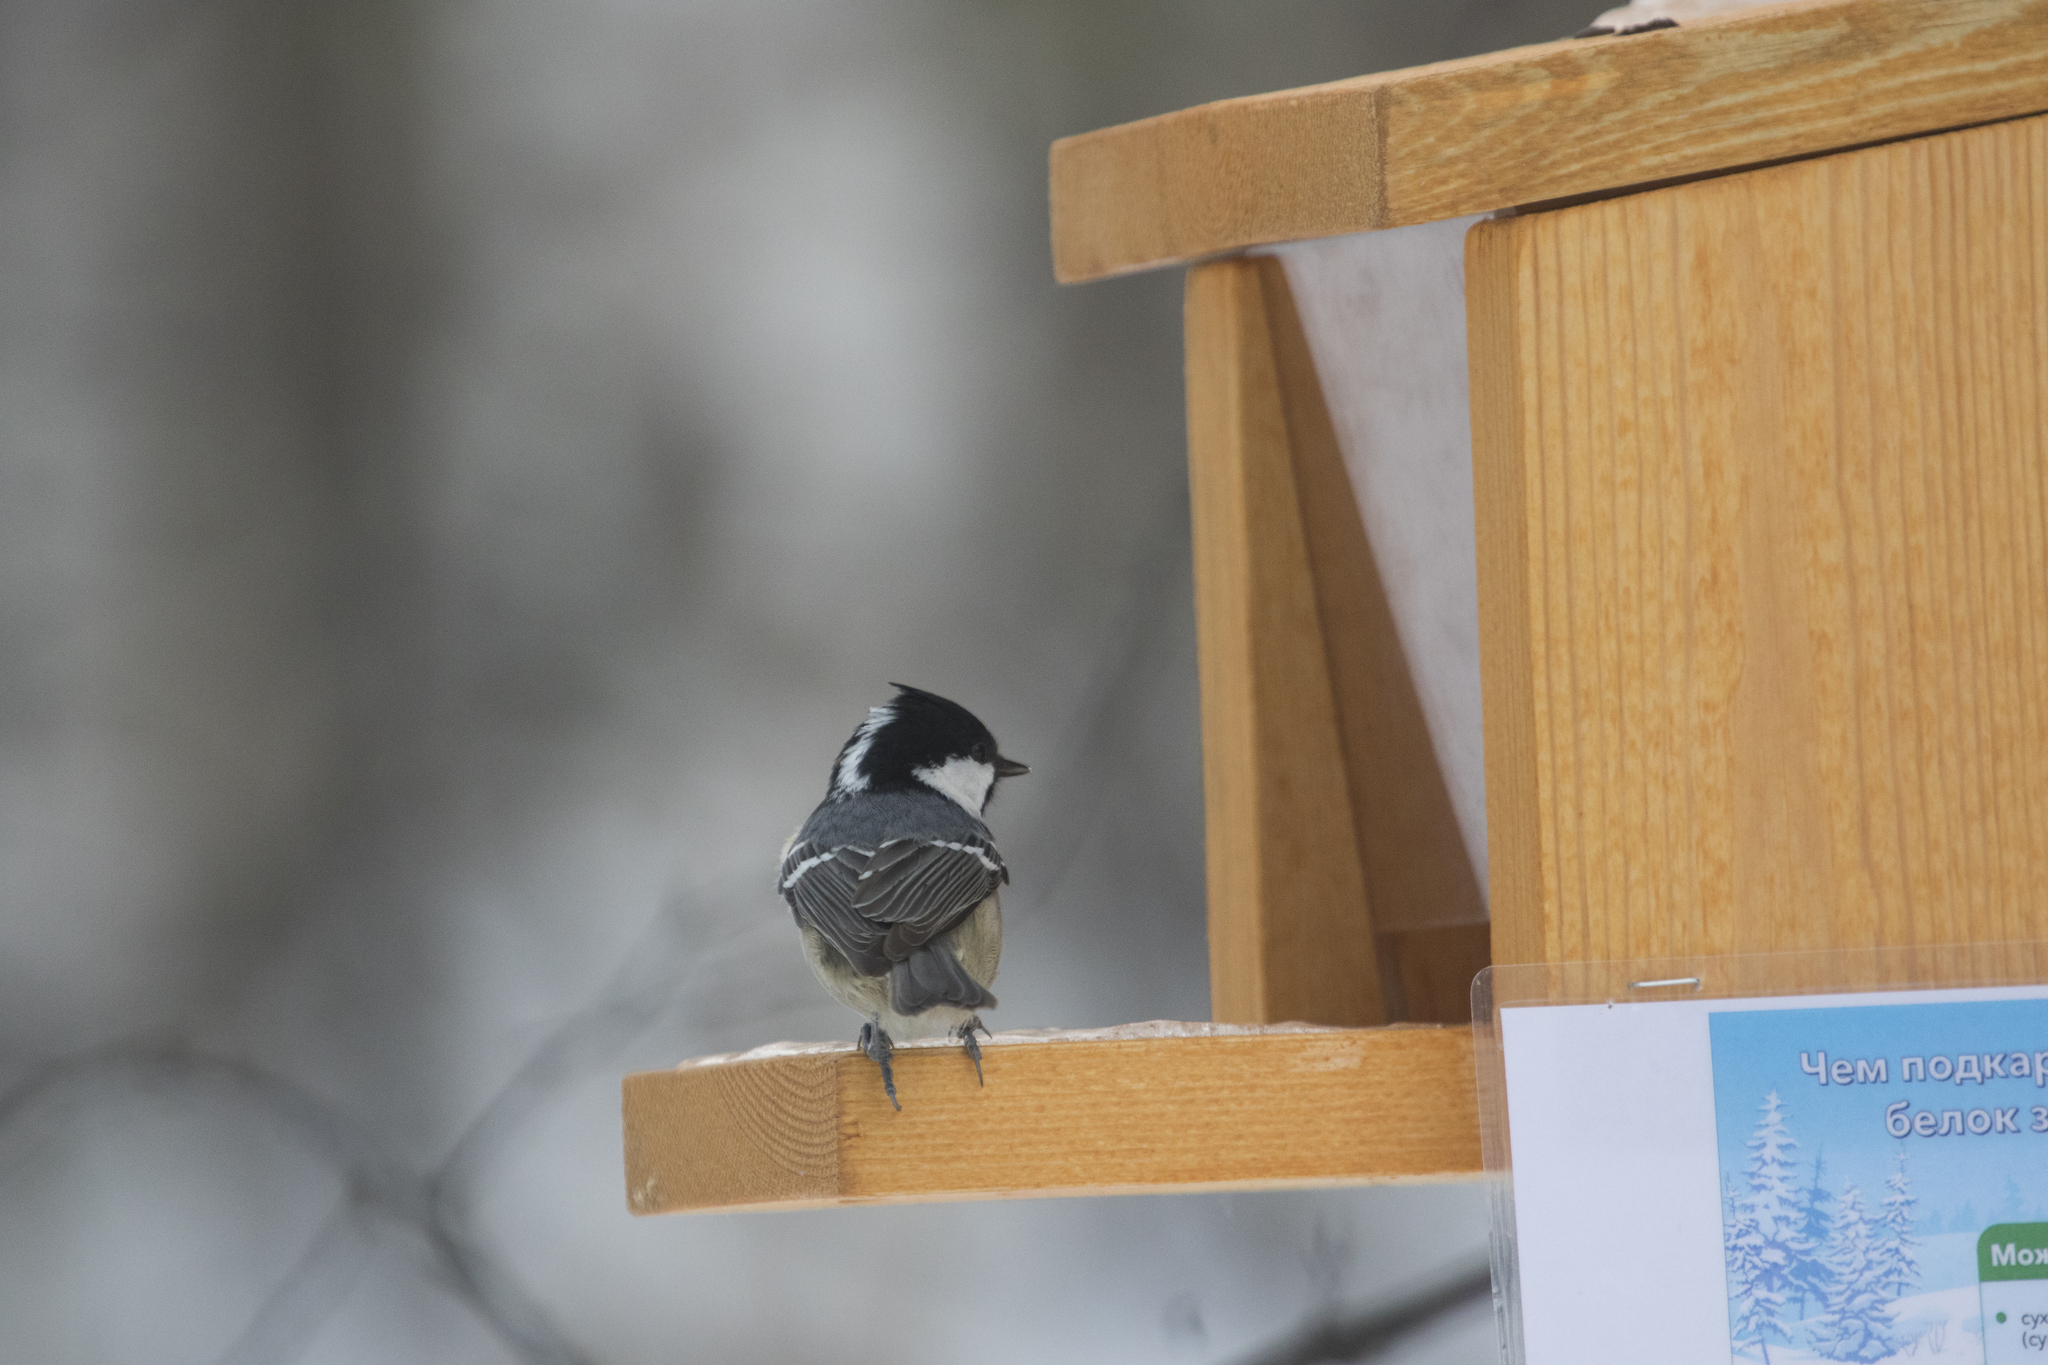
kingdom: Animalia
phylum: Chordata
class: Aves
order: Passeriformes
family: Paridae
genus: Periparus
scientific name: Periparus ater
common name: Coal tit
